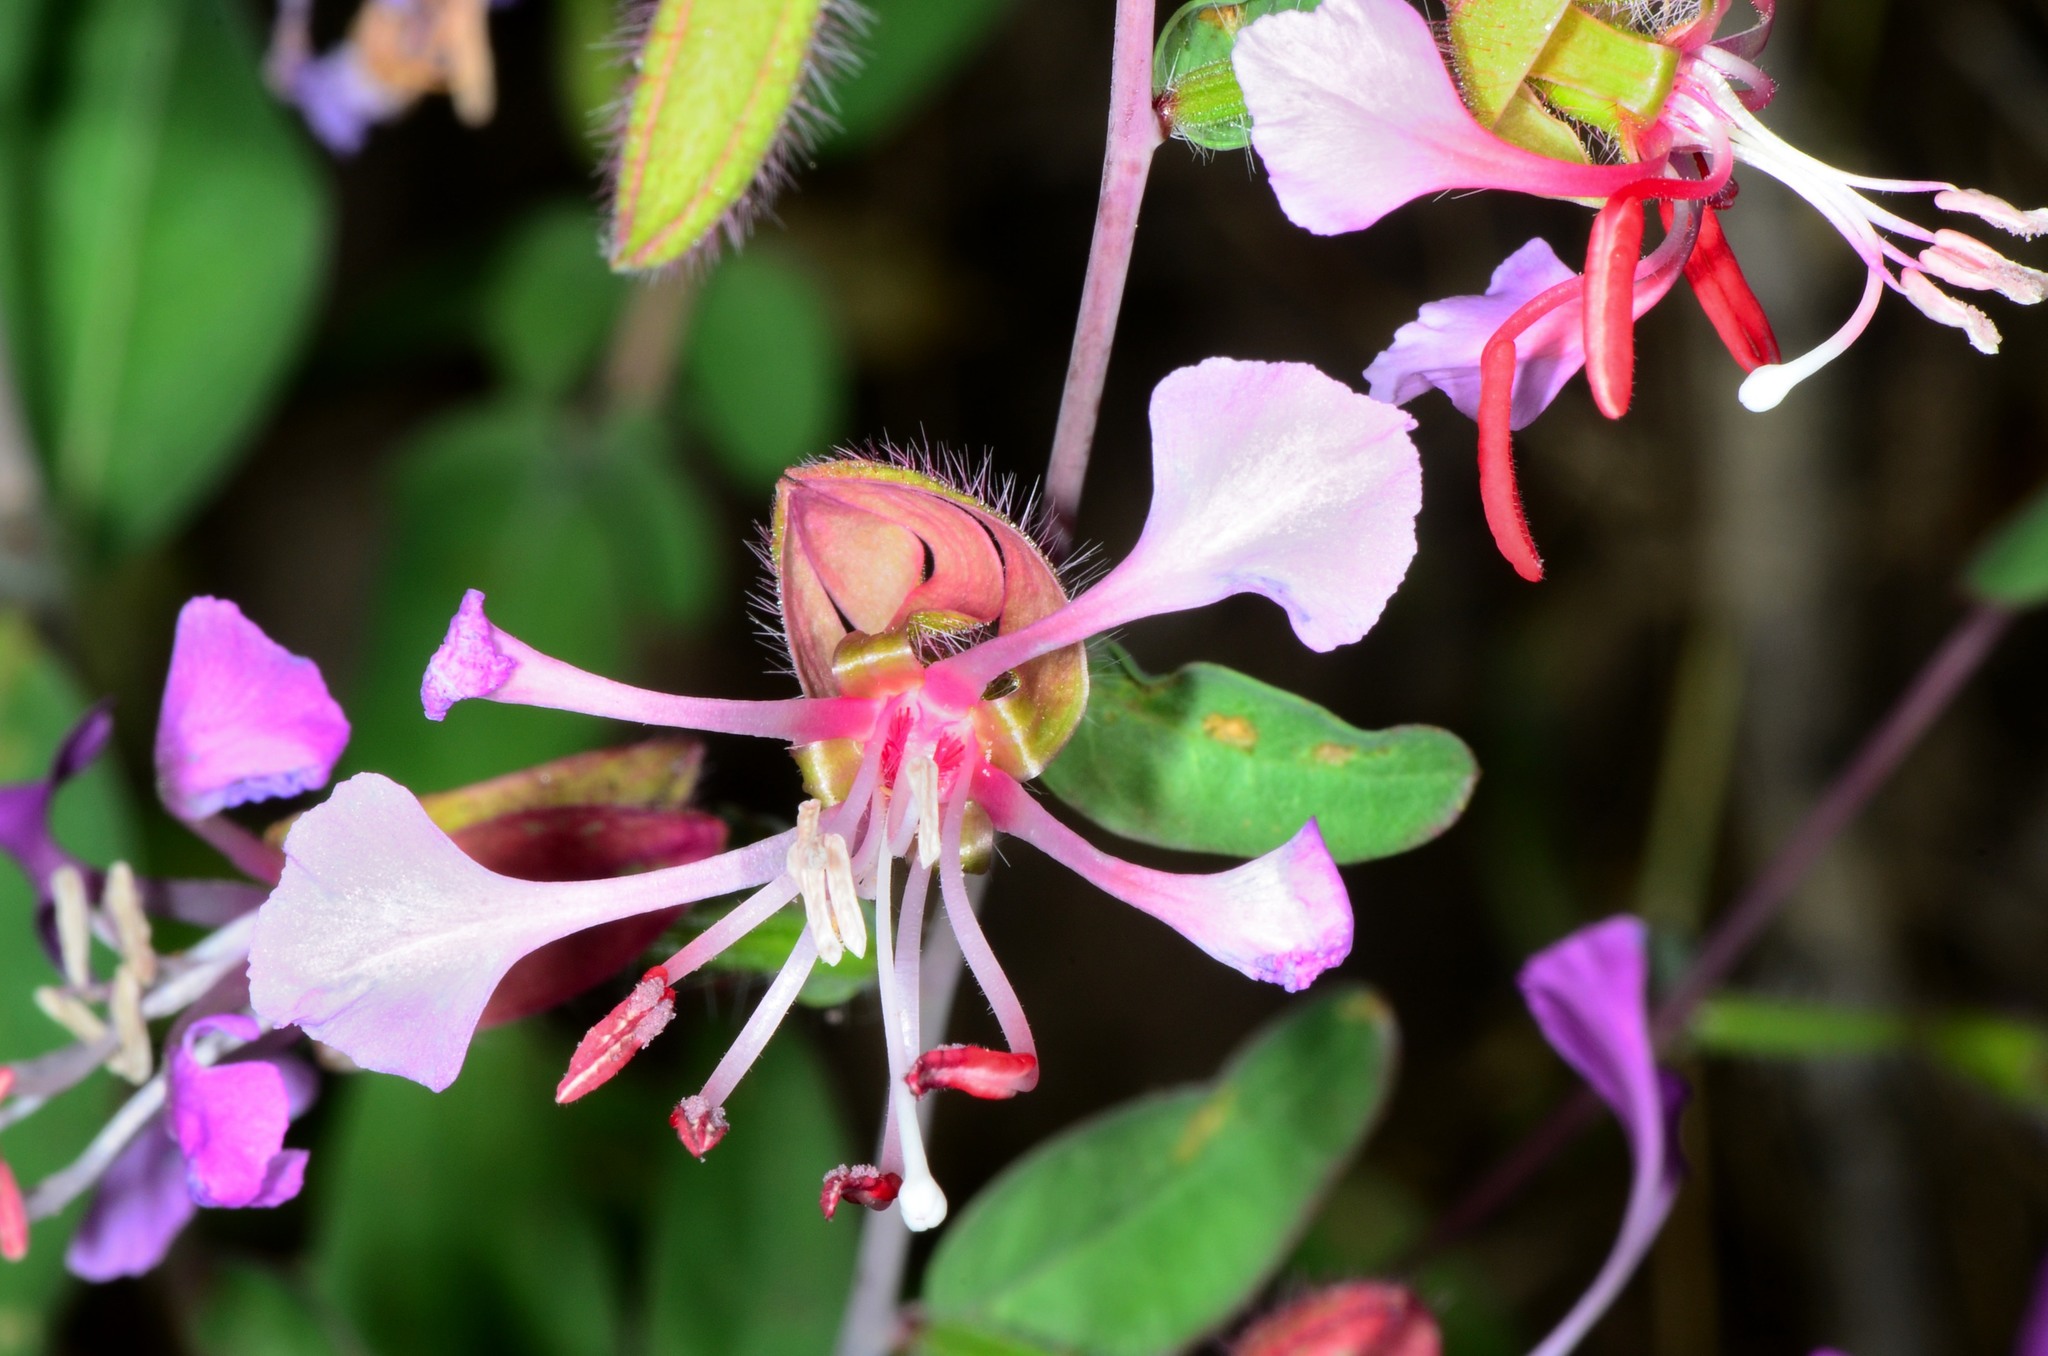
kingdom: Plantae
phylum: Tracheophyta
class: Magnoliopsida
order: Myrtales
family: Onagraceae
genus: Clarkia
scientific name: Clarkia unguiculata
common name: Clarkia
